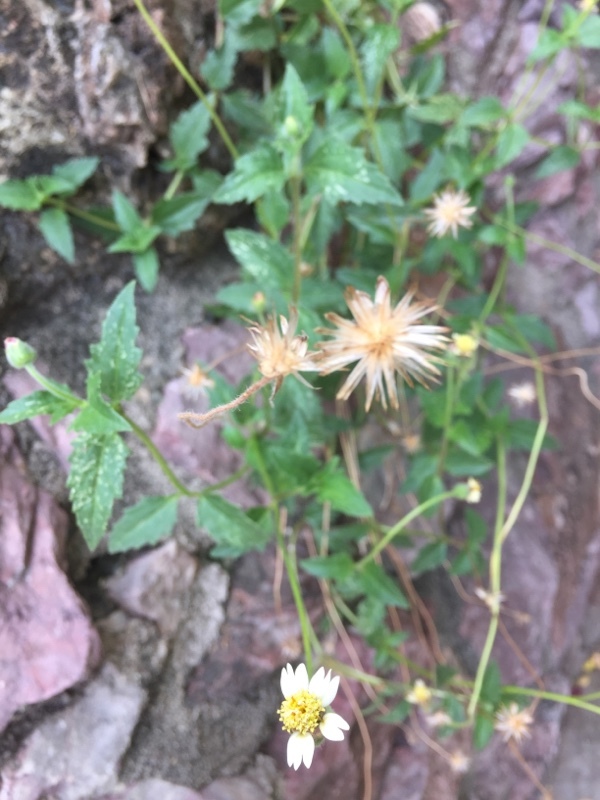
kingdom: Plantae
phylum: Tracheophyta
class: Magnoliopsida
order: Asterales
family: Asteraceae
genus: Tridax
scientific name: Tridax procumbens
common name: Coatbuttons
